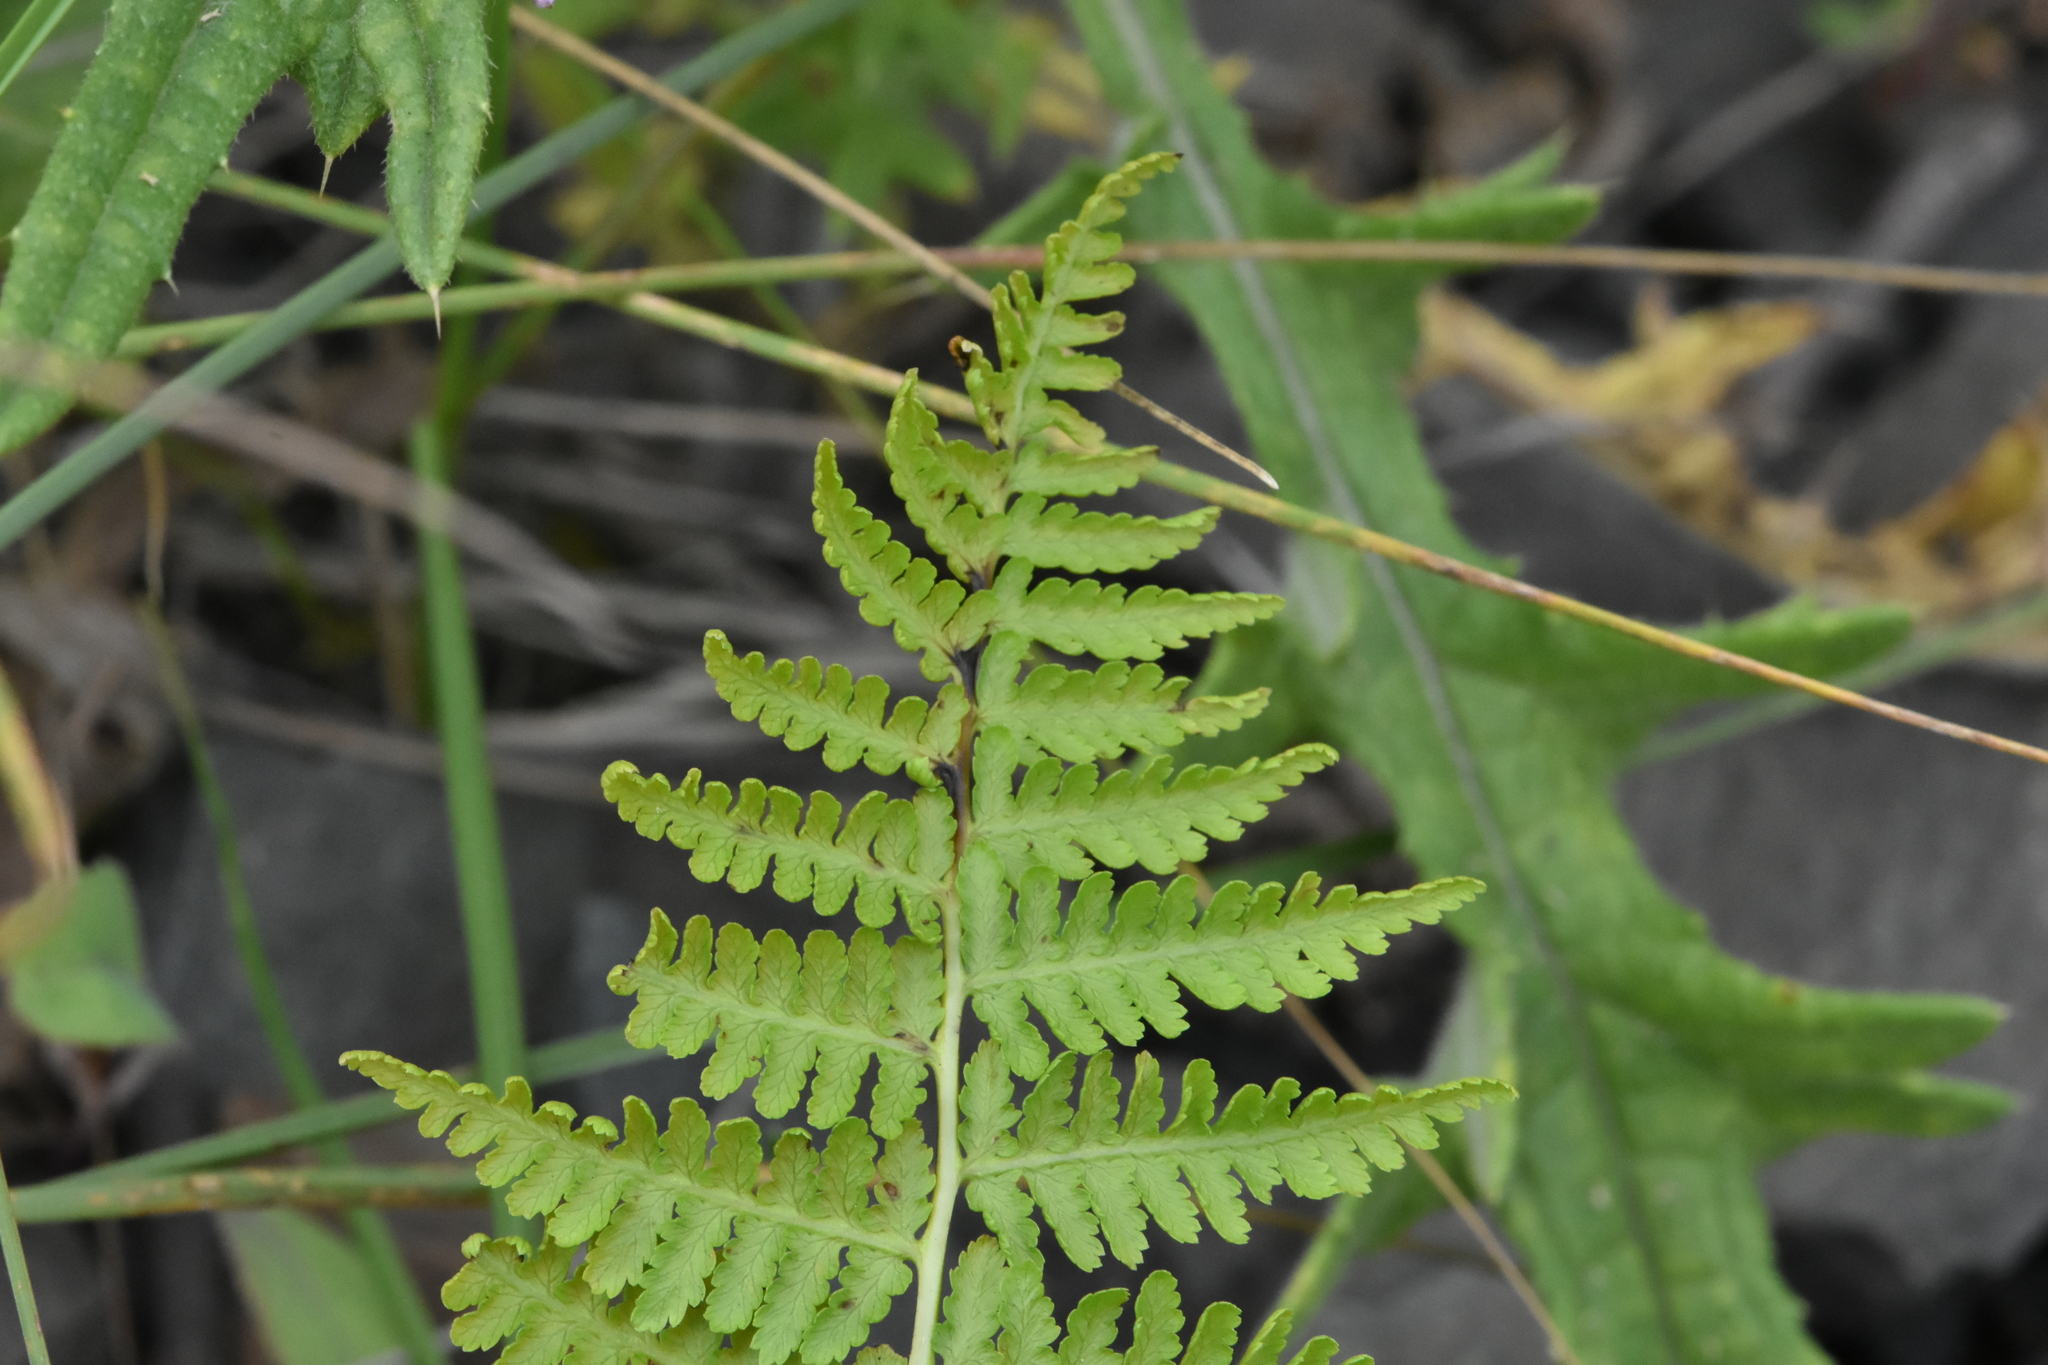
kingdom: Plantae
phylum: Tracheophyta
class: Polypodiopsida
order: Polypodiales
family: Athyriaceae
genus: Athyrium
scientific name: Athyrium filix-femina
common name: Lady fern
